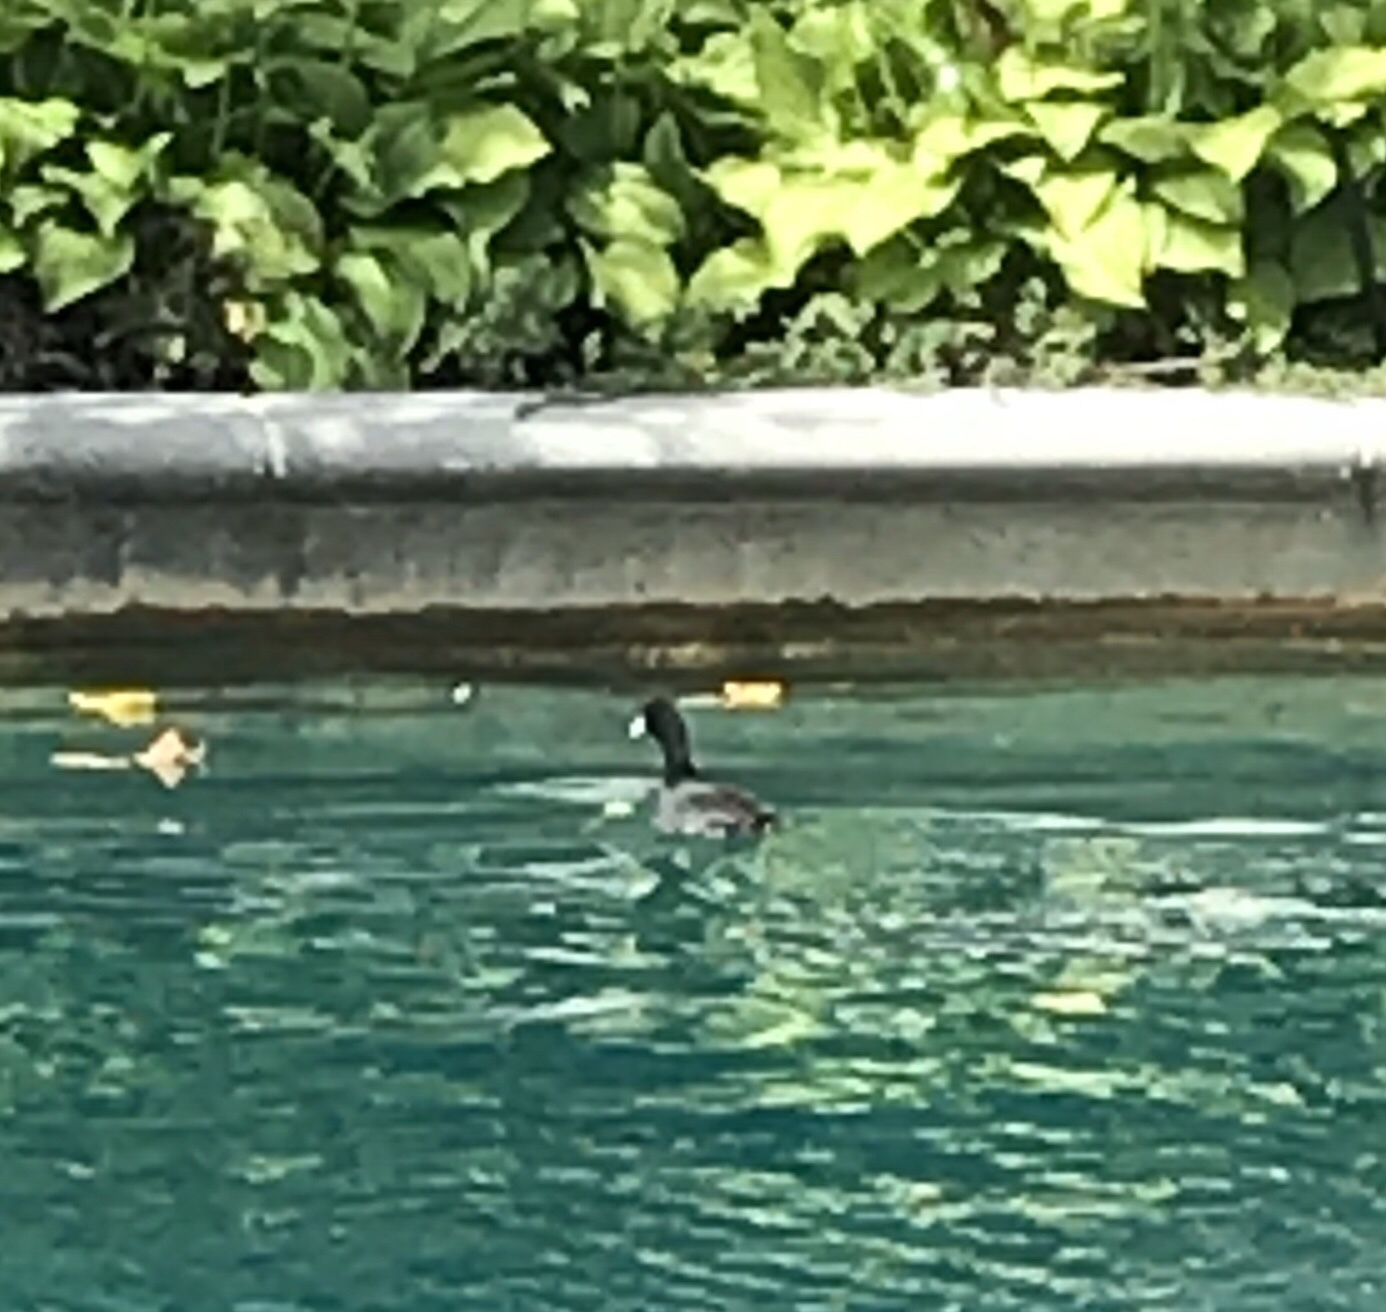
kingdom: Animalia
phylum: Chordata
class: Aves
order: Gruiformes
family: Rallidae
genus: Fulica
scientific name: Fulica americana
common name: American coot
